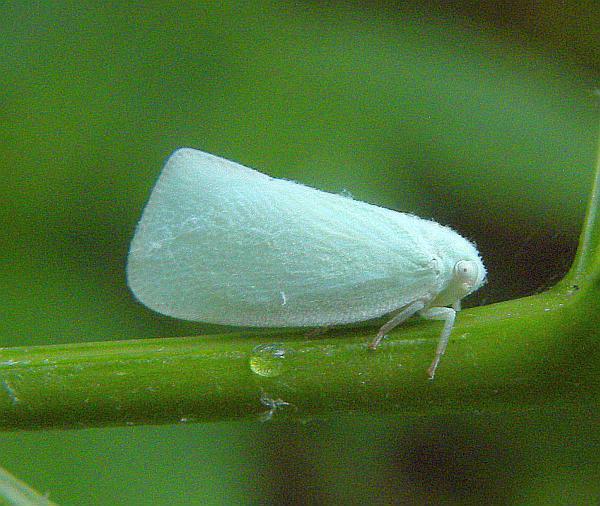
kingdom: Animalia
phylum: Arthropoda
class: Insecta
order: Hemiptera
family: Flatidae
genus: Flatormenis
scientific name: Flatormenis proxima
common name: Northern flatid planthopper
